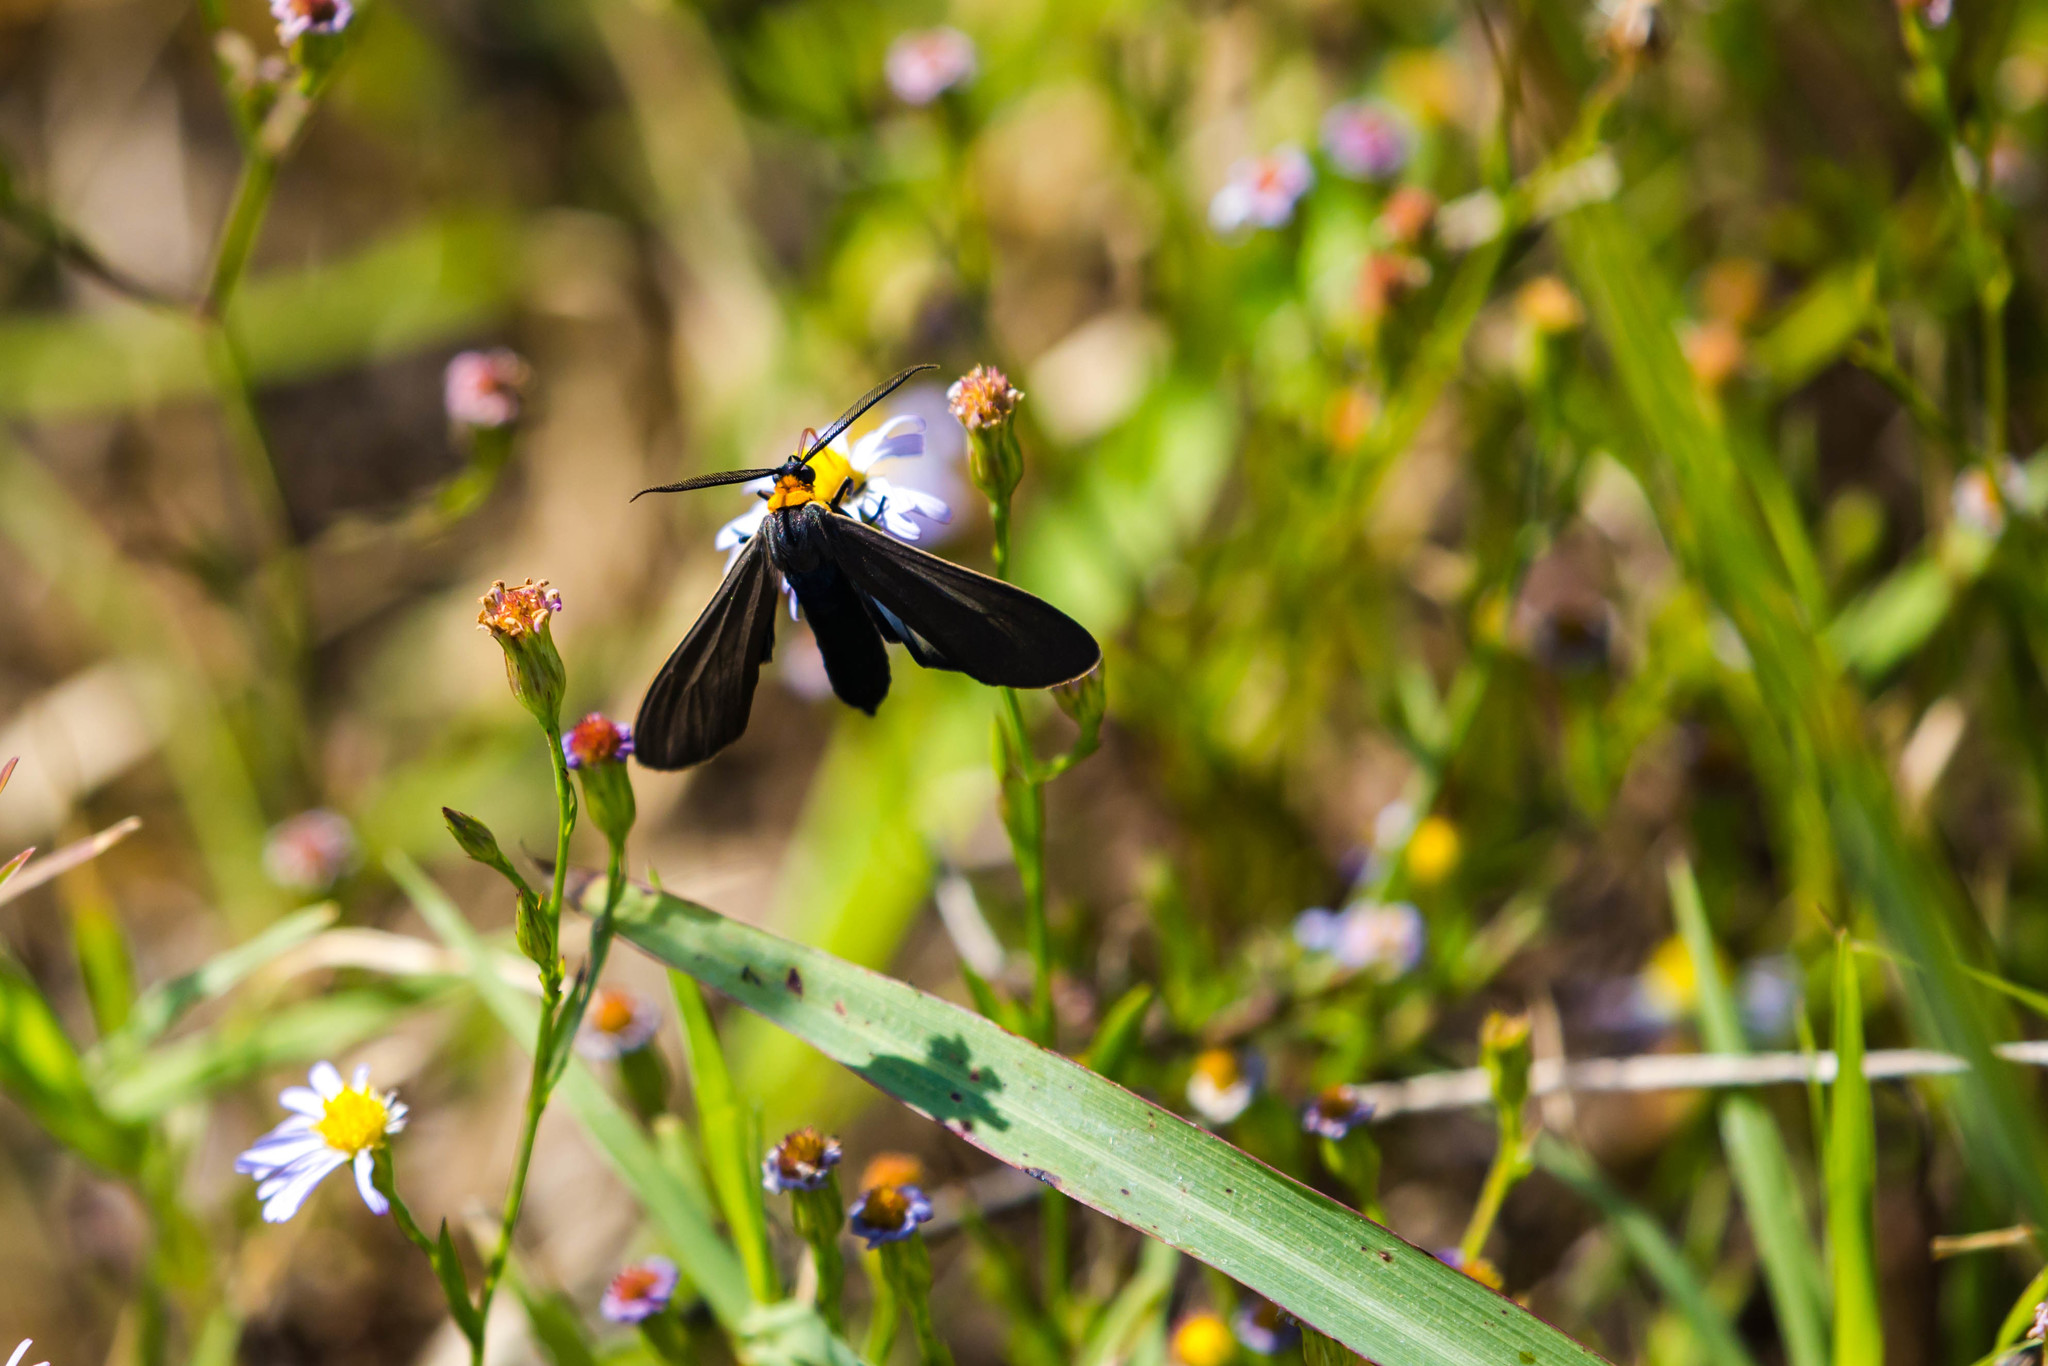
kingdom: Animalia
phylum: Arthropoda
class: Insecta
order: Lepidoptera
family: Erebidae
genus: Cisseps
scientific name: Cisseps fulvicollis
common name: Yellow-collared scape moth
